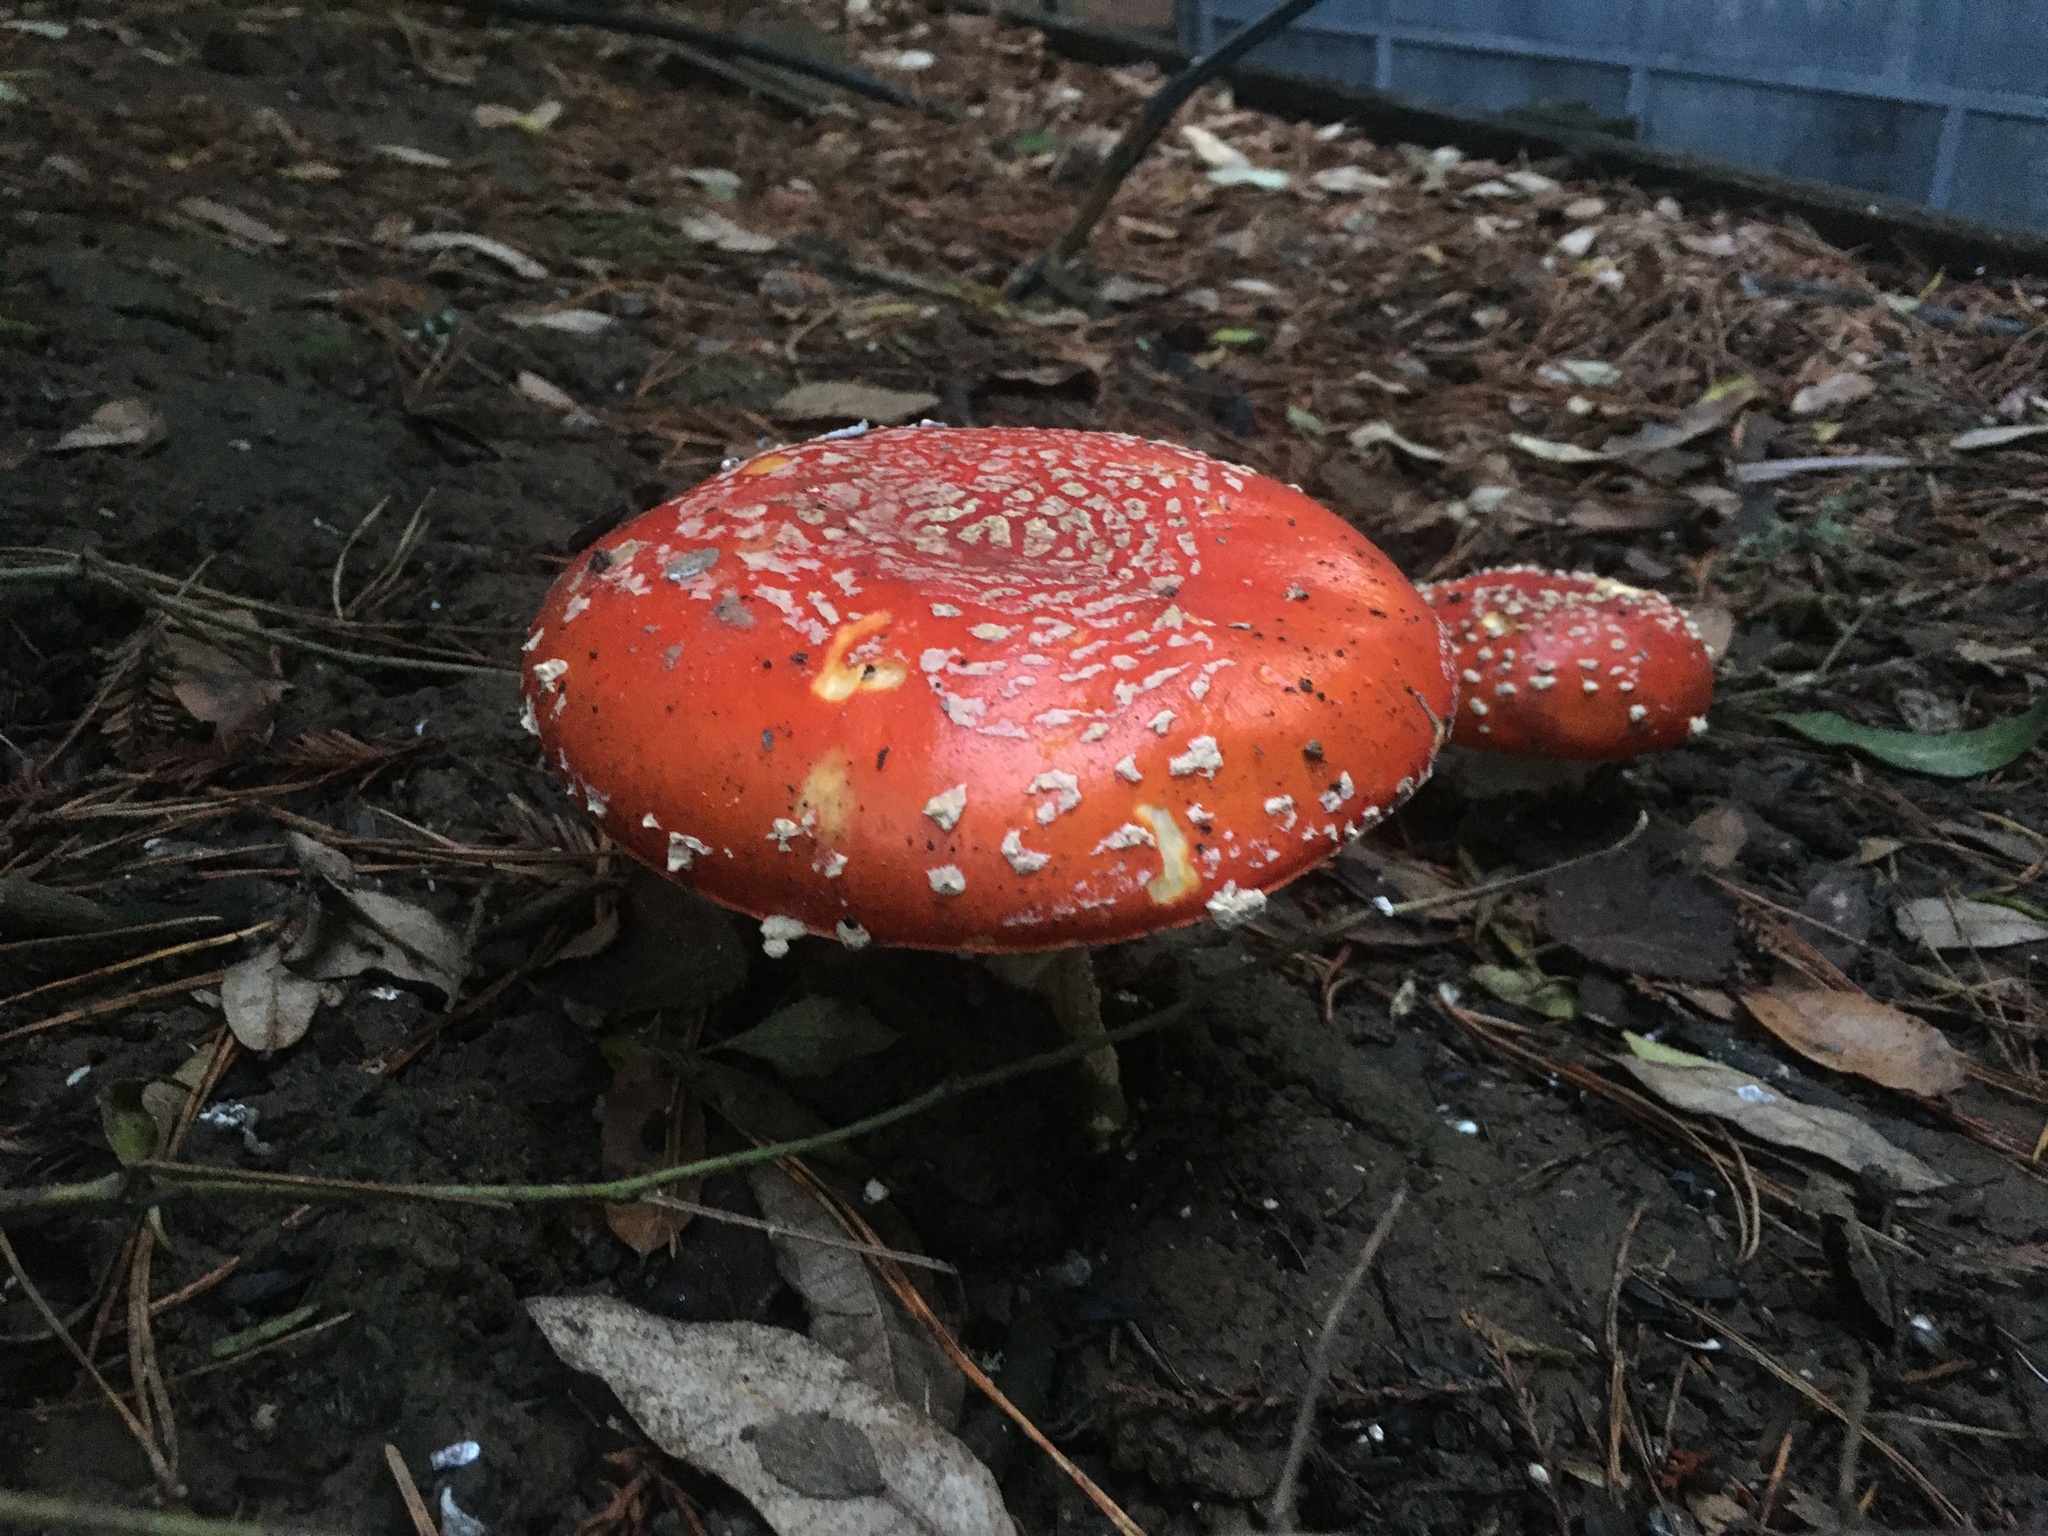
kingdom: Fungi
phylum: Basidiomycota
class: Agaricomycetes
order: Agaricales
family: Amanitaceae
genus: Amanita
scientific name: Amanita muscaria
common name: Fly agaric
